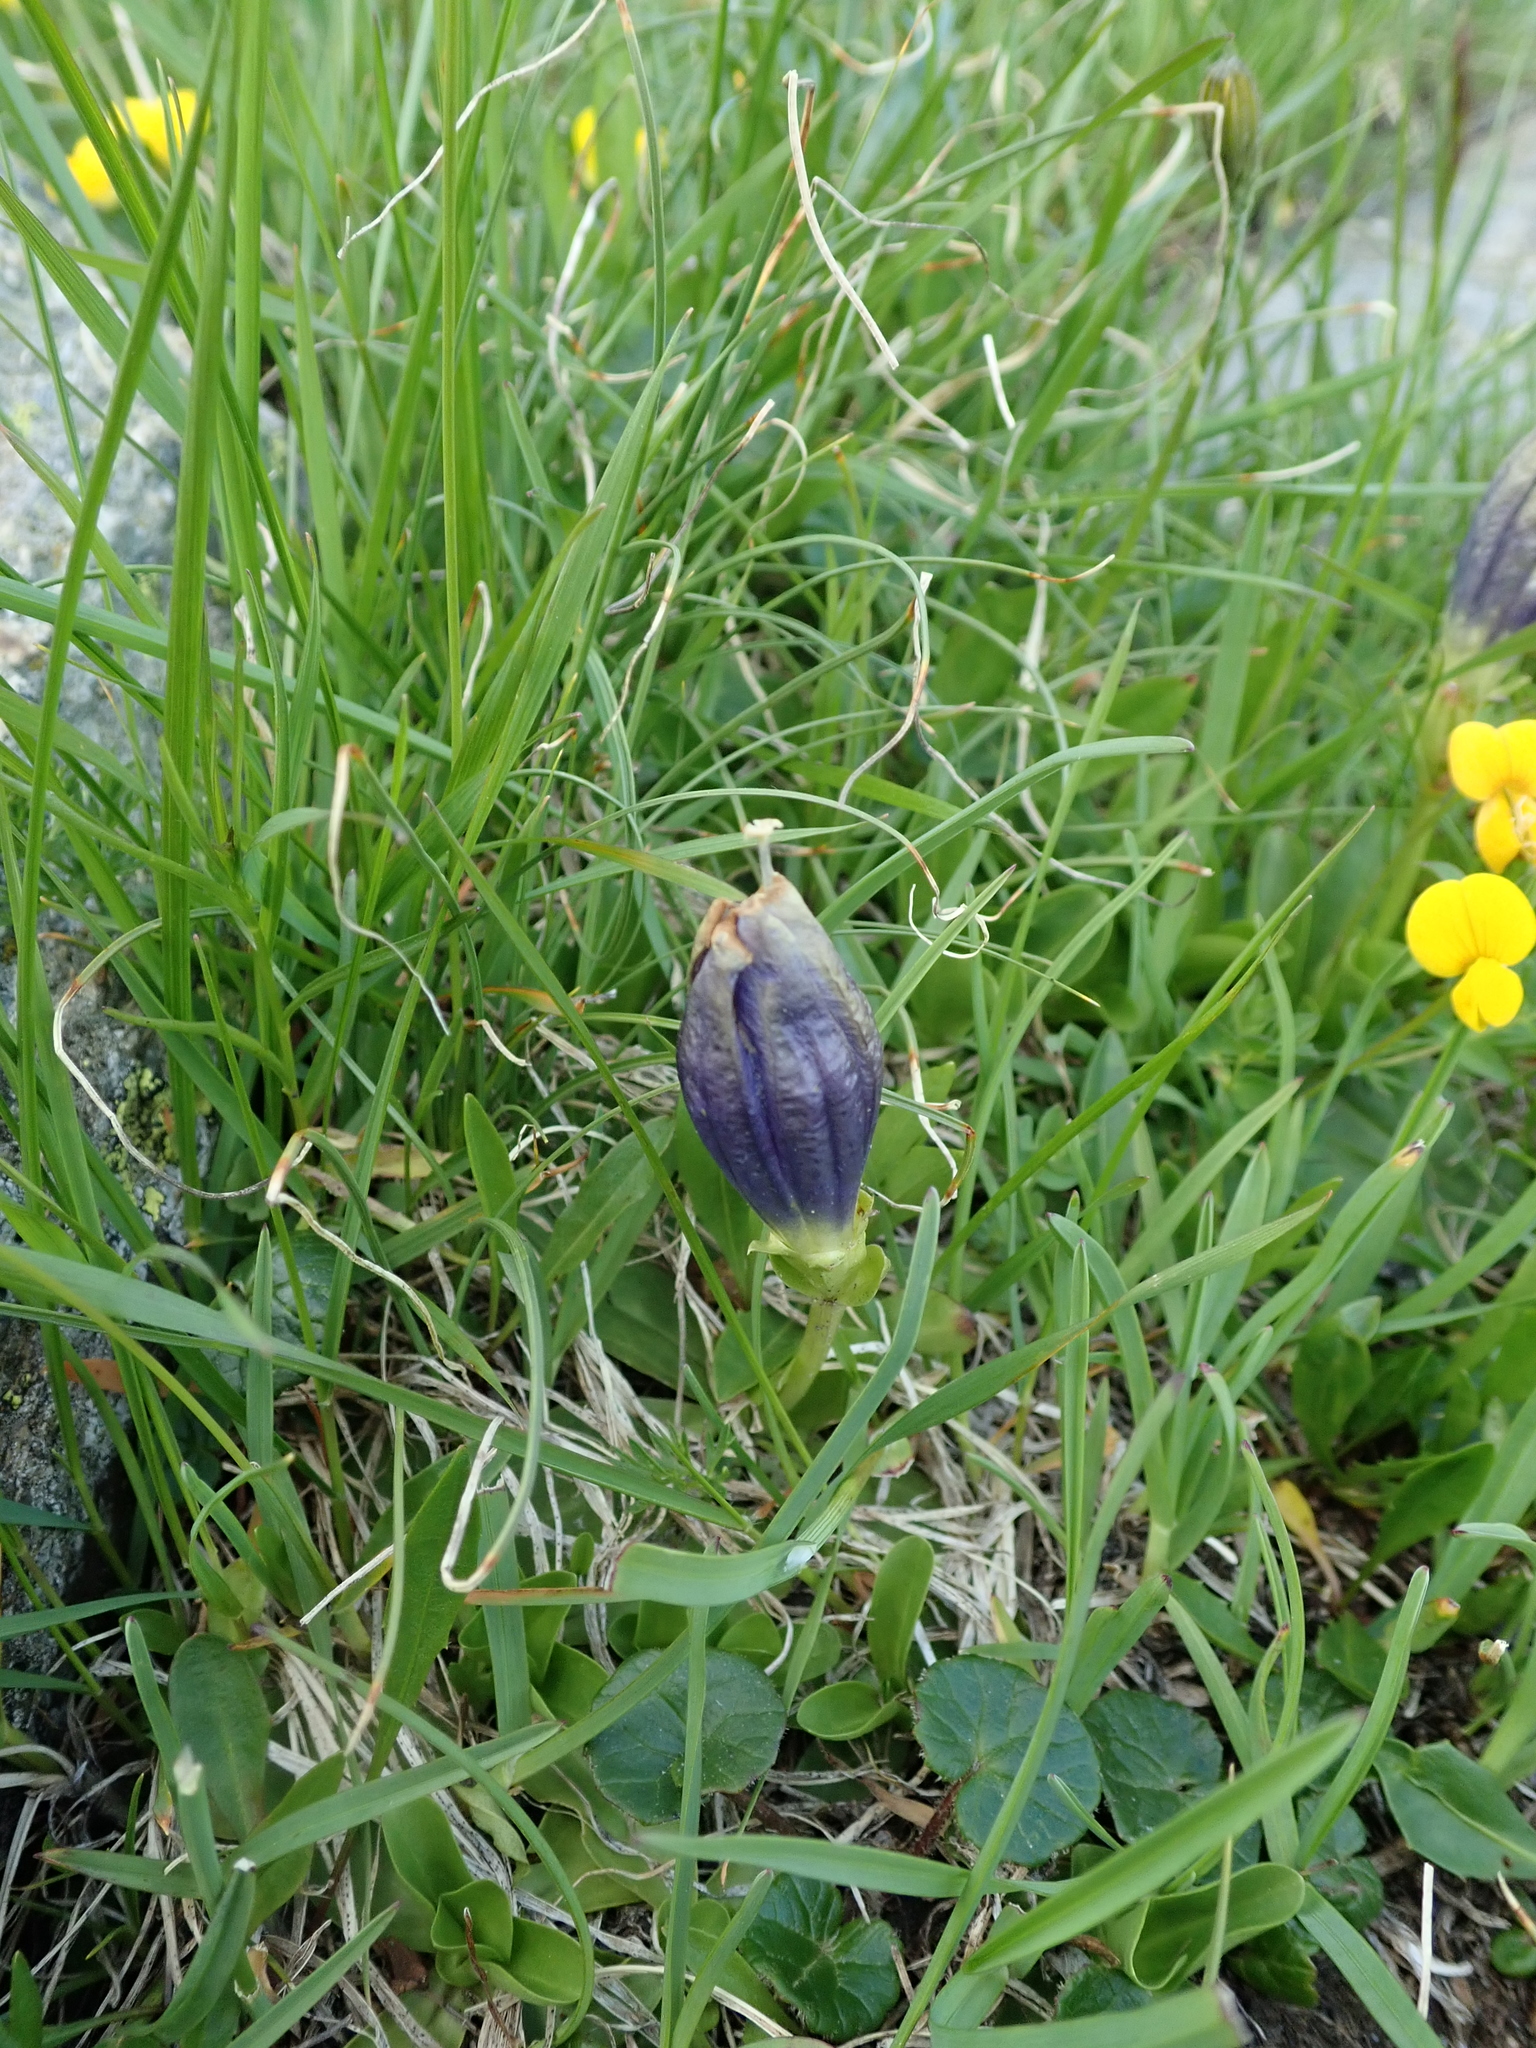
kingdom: Plantae
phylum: Tracheophyta
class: Magnoliopsida
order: Gentianales
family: Gentianaceae
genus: Gentiana
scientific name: Gentiana acaulis
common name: Trumpet gentian
